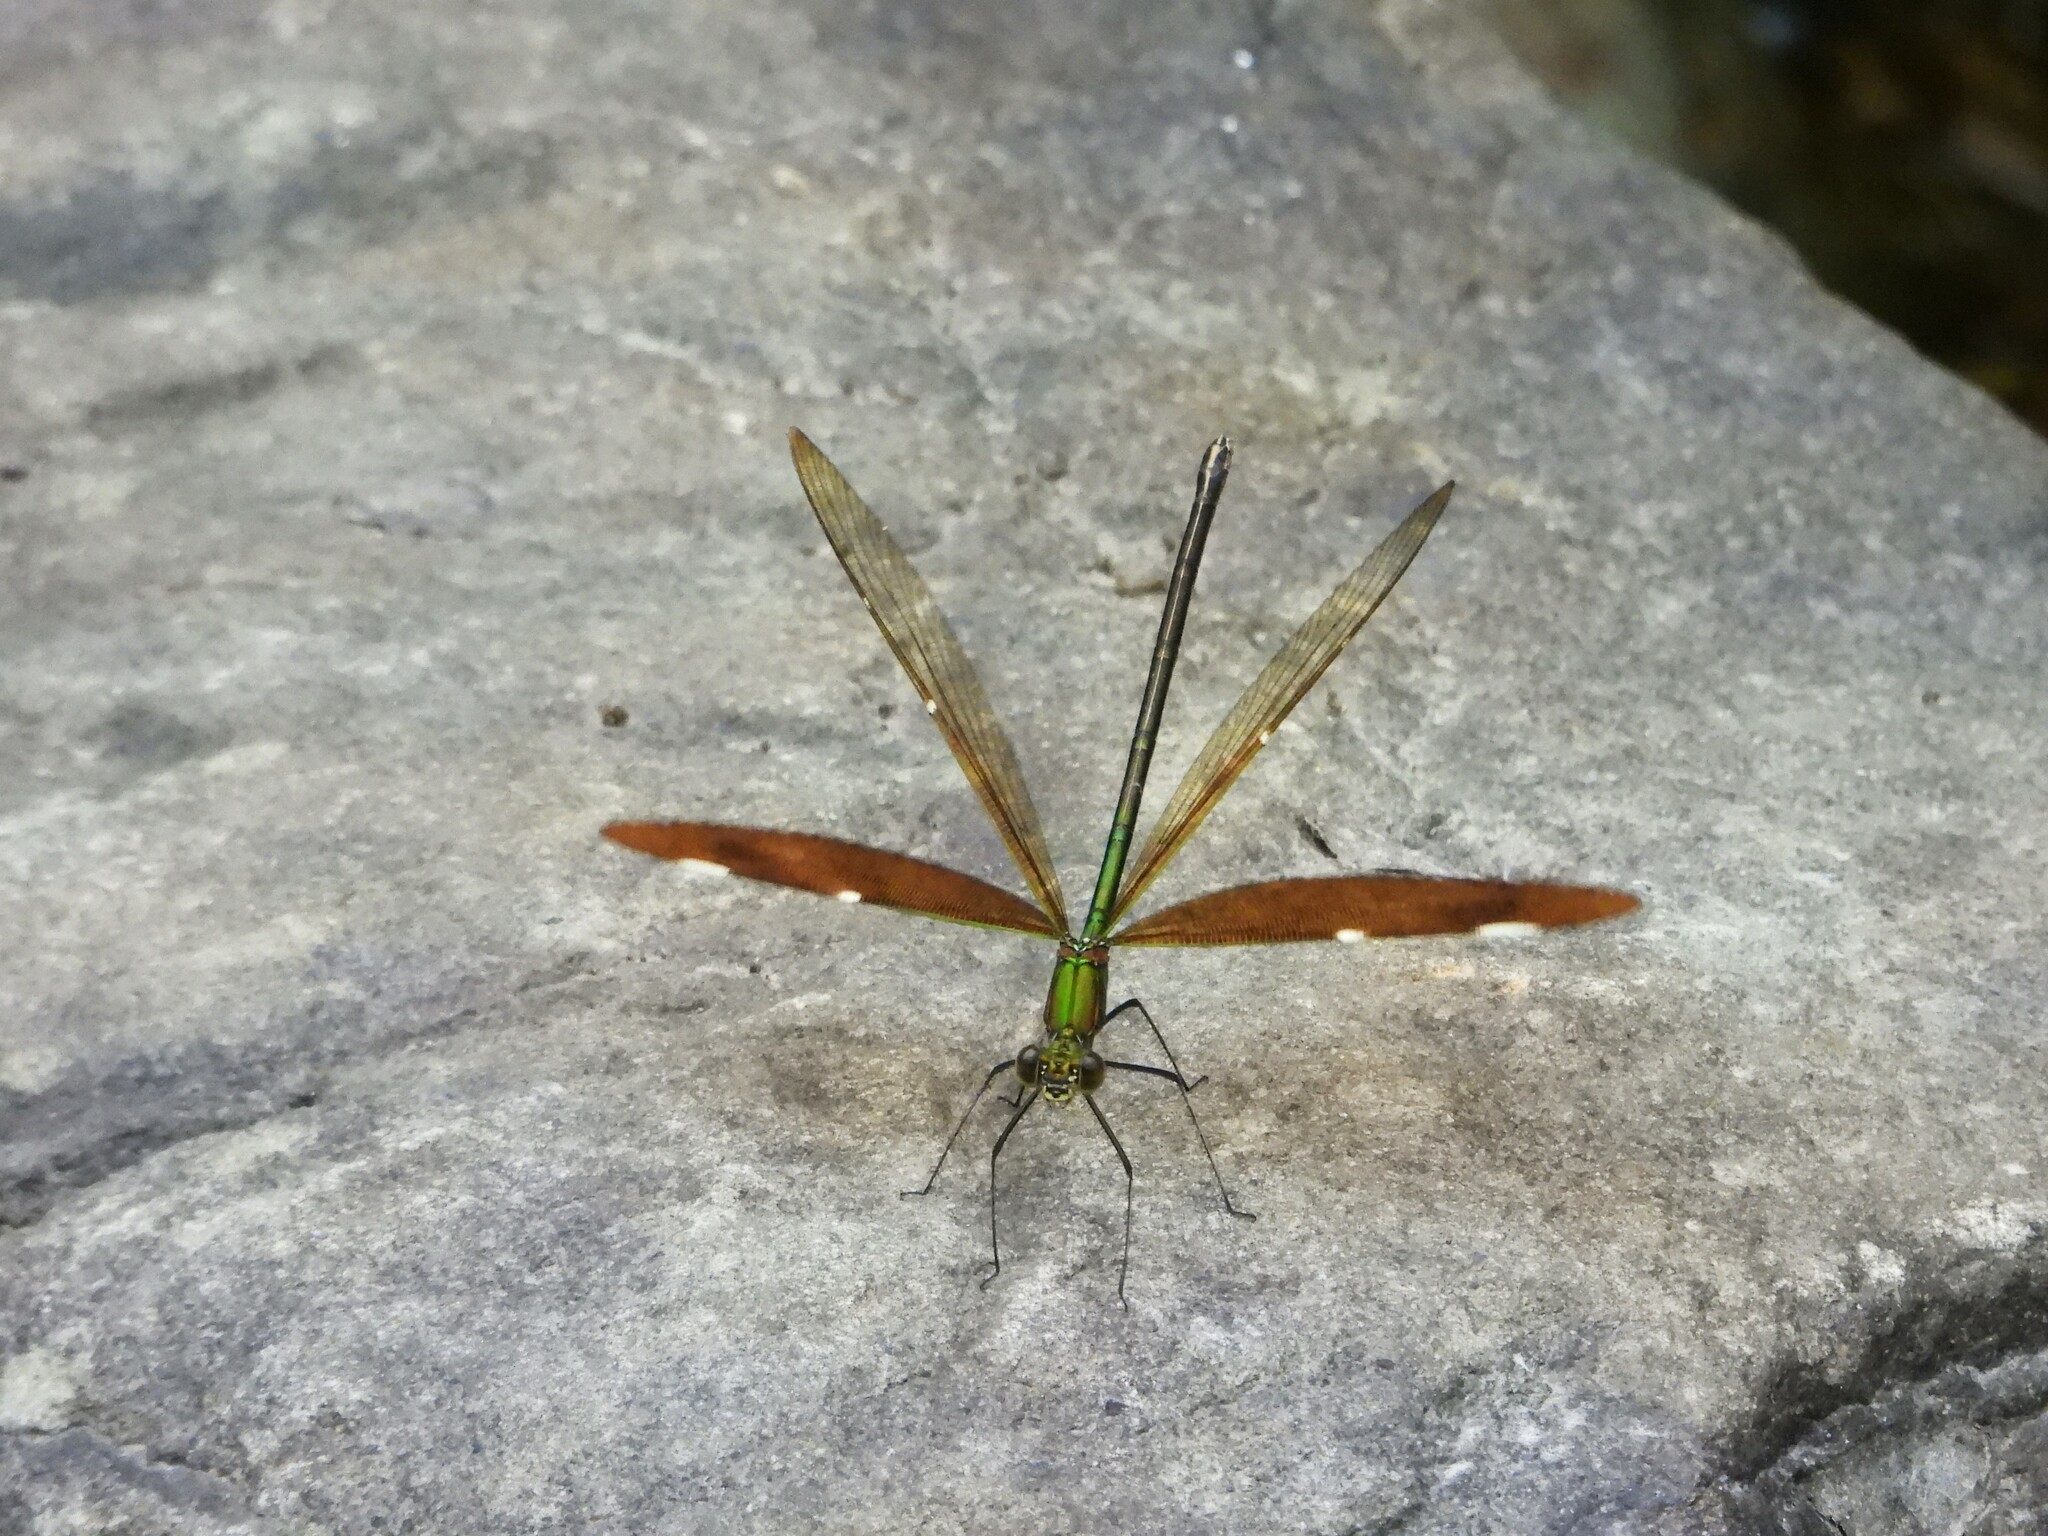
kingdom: Animalia
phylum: Arthropoda
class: Insecta
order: Odonata
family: Calopterygidae
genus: Neurobasis
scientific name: Neurobasis chinensis
